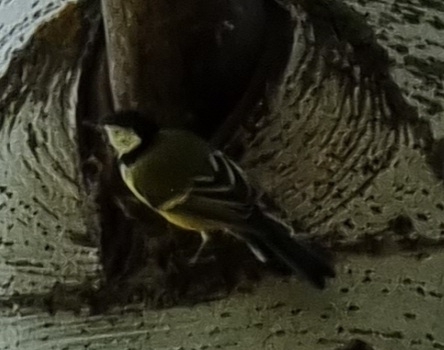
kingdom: Animalia
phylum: Chordata
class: Aves
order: Passeriformes
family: Paridae
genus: Parus
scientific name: Parus major
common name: Great tit
